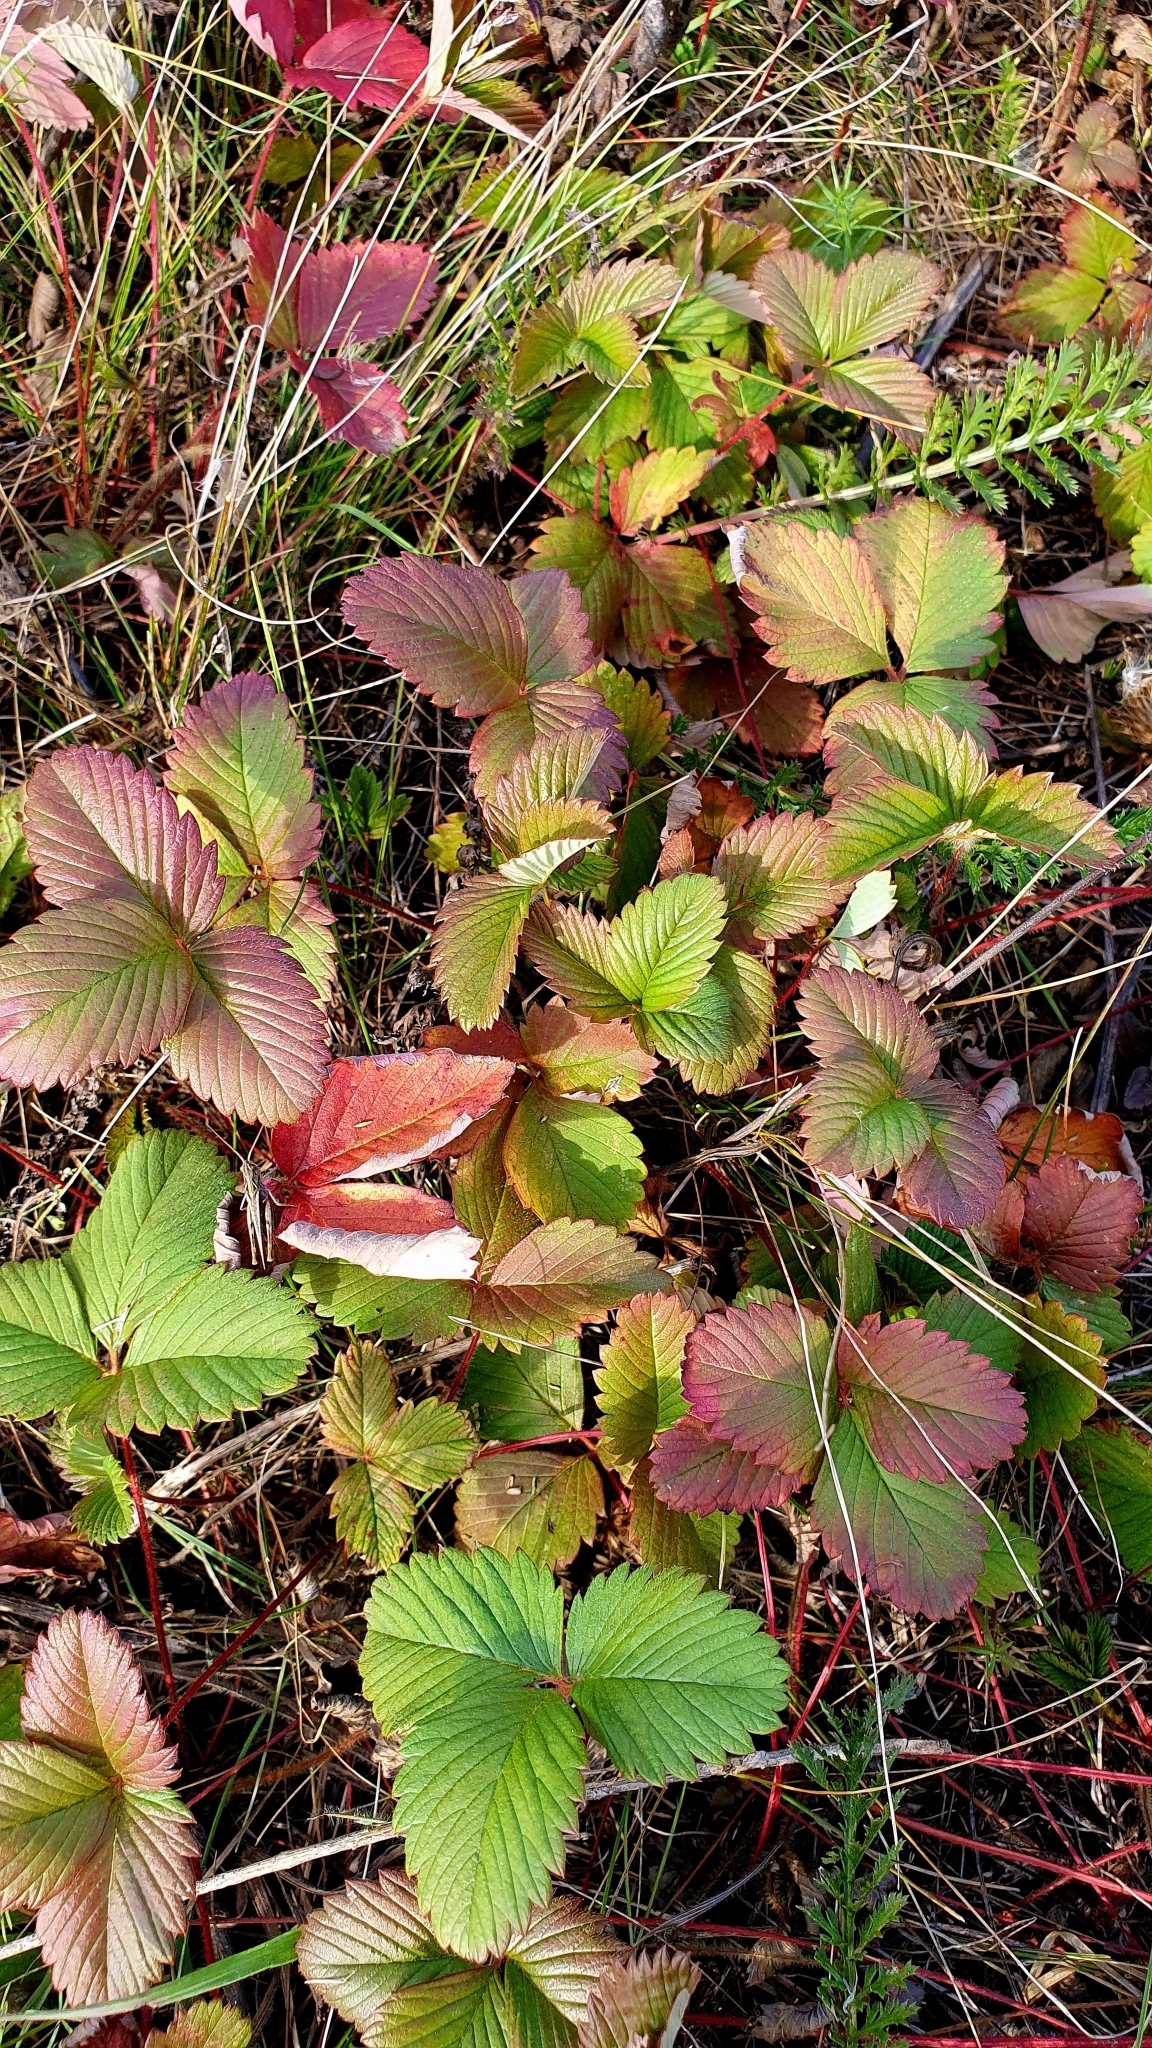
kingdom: Plantae
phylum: Tracheophyta
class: Magnoliopsida
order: Rosales
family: Rosaceae
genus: Fragaria
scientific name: Fragaria viridis
